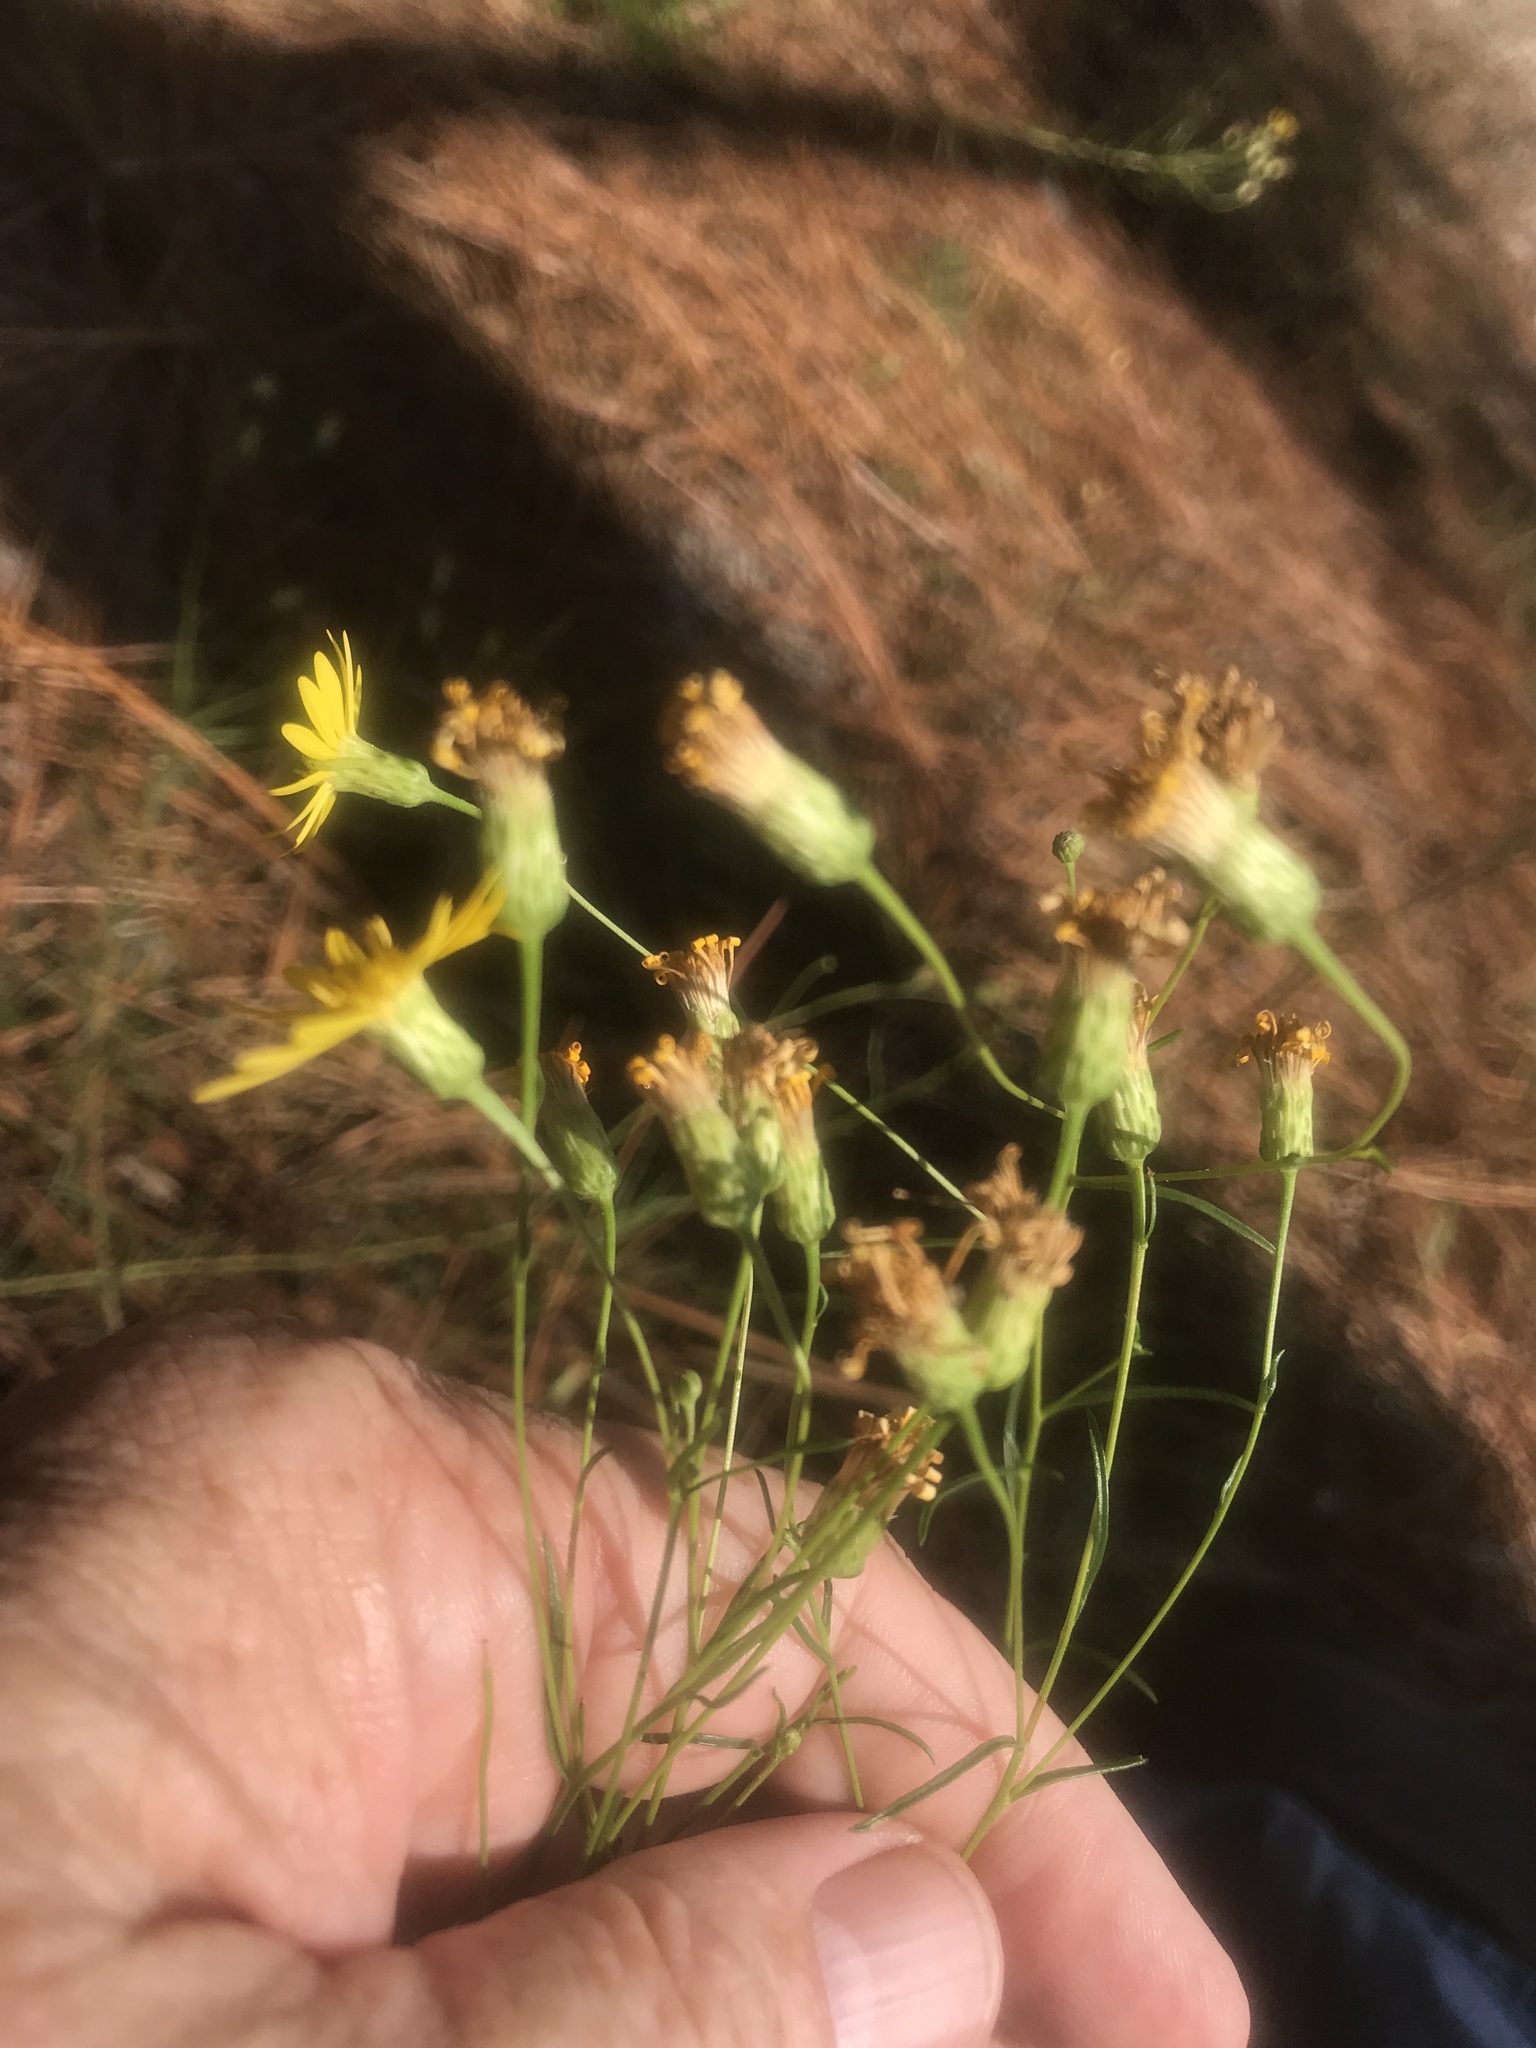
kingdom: Plantae
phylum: Tracheophyta
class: Magnoliopsida
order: Asterales
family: Asteraceae
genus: Pityopsis
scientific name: Pityopsis pinifolia
